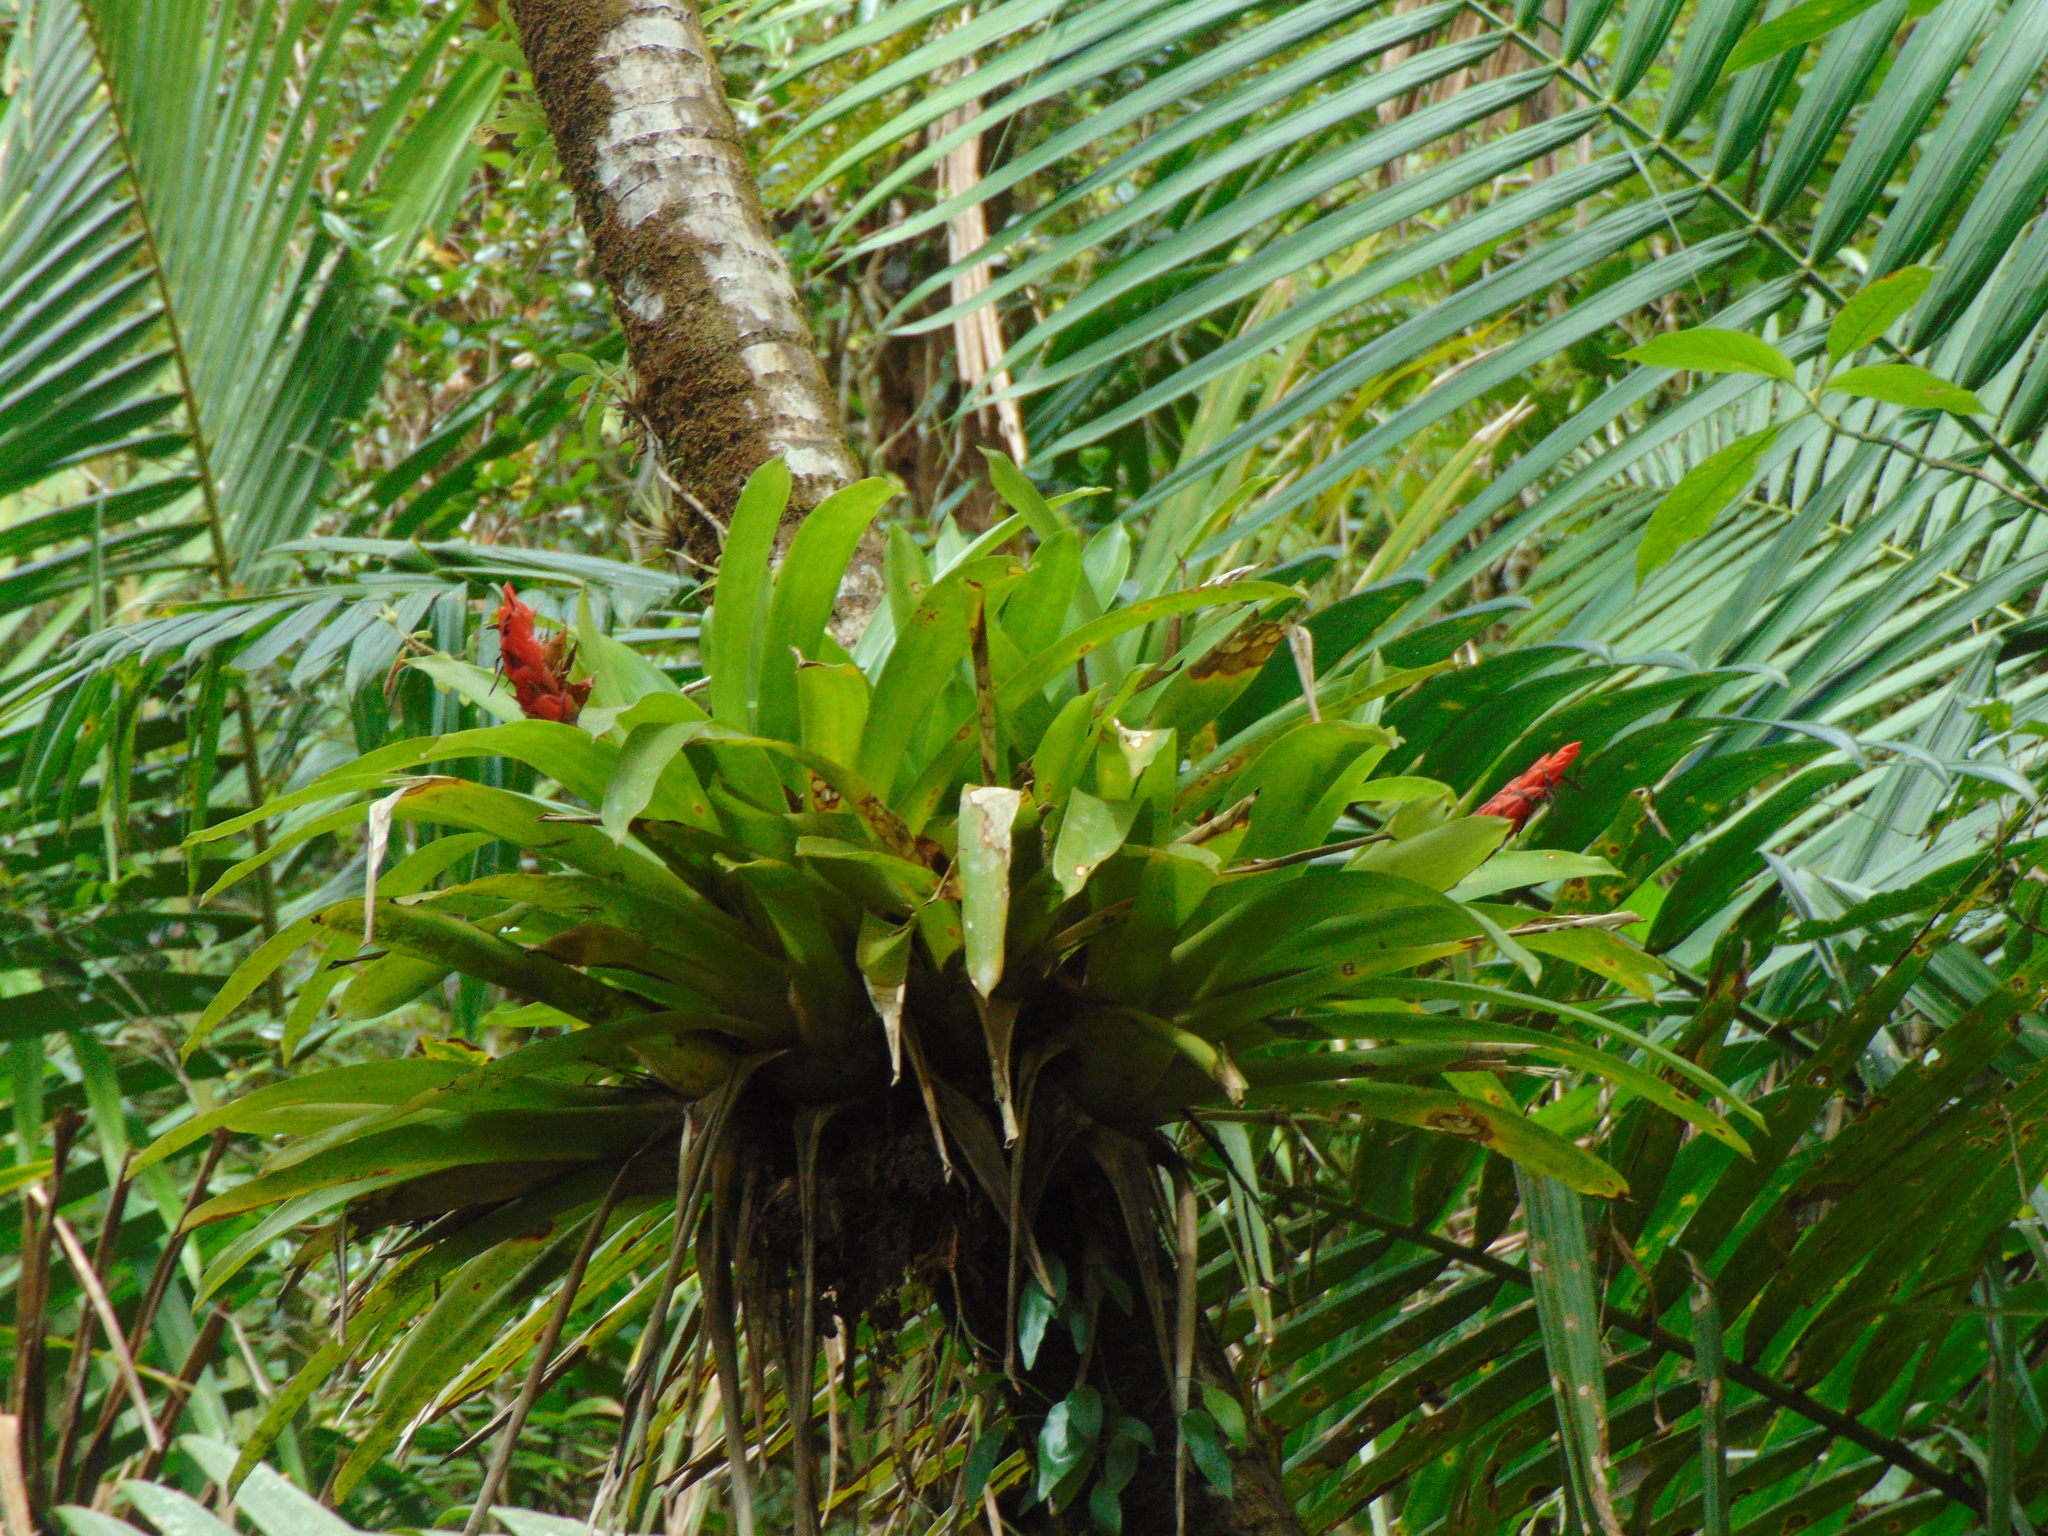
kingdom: Plantae
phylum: Tracheophyta
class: Liliopsida
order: Poales
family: Bromeliaceae
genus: Guzmania
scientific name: Guzmania berteroniana
